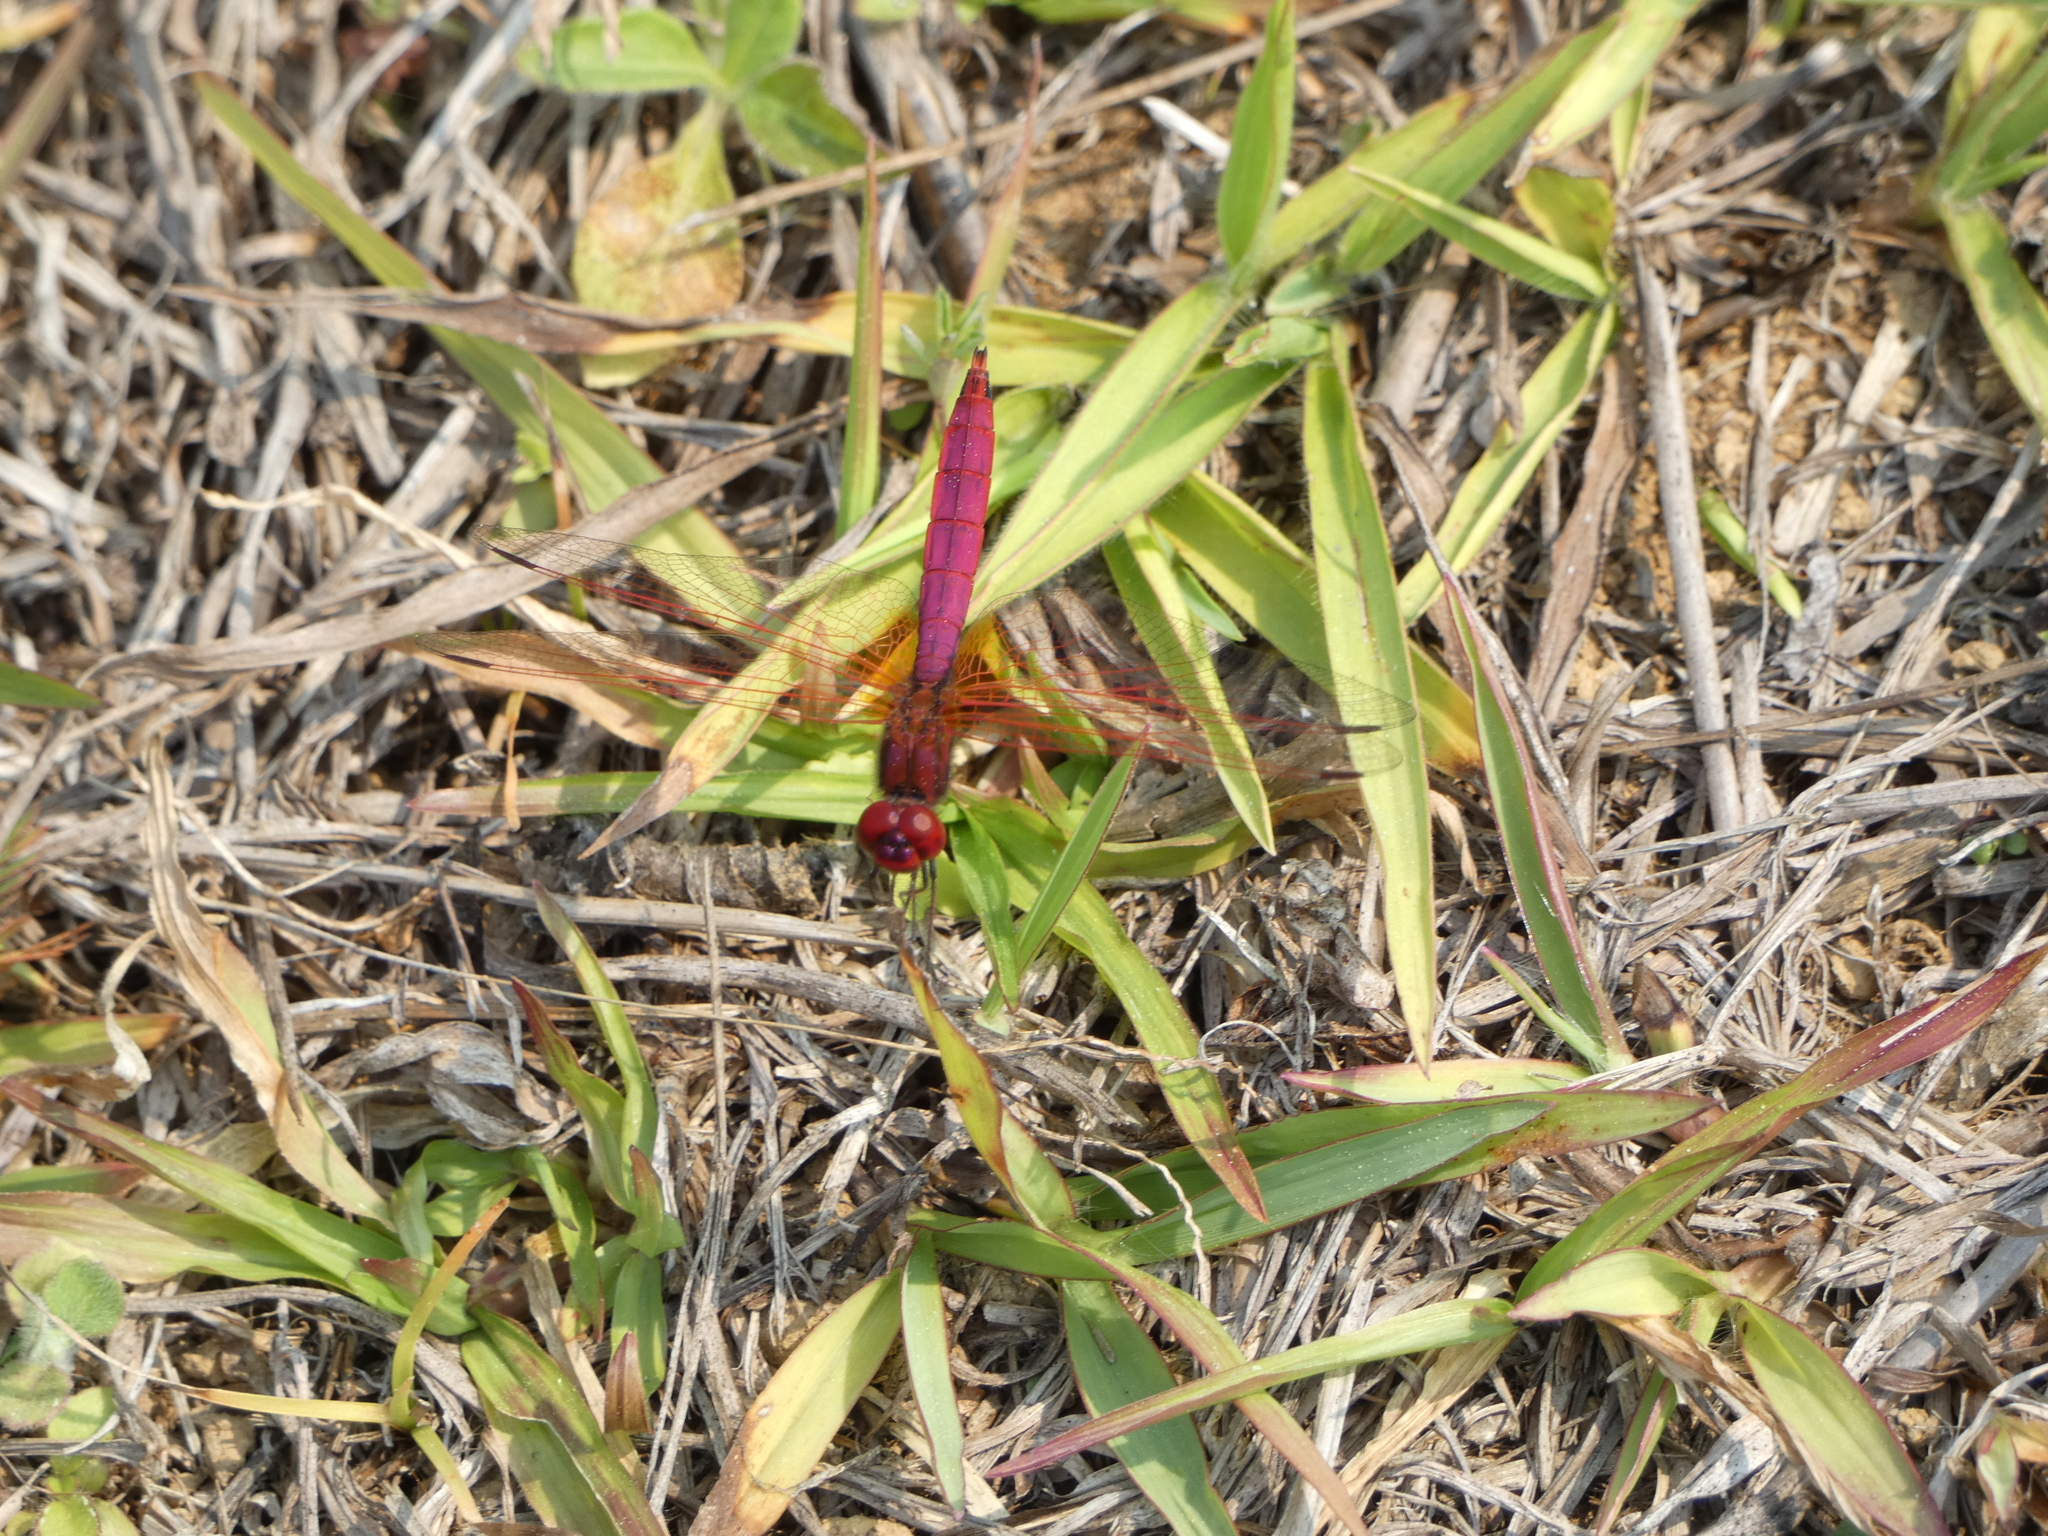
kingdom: Animalia
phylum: Arthropoda
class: Insecta
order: Odonata
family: Libellulidae
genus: Trithemis
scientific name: Trithemis aurora
